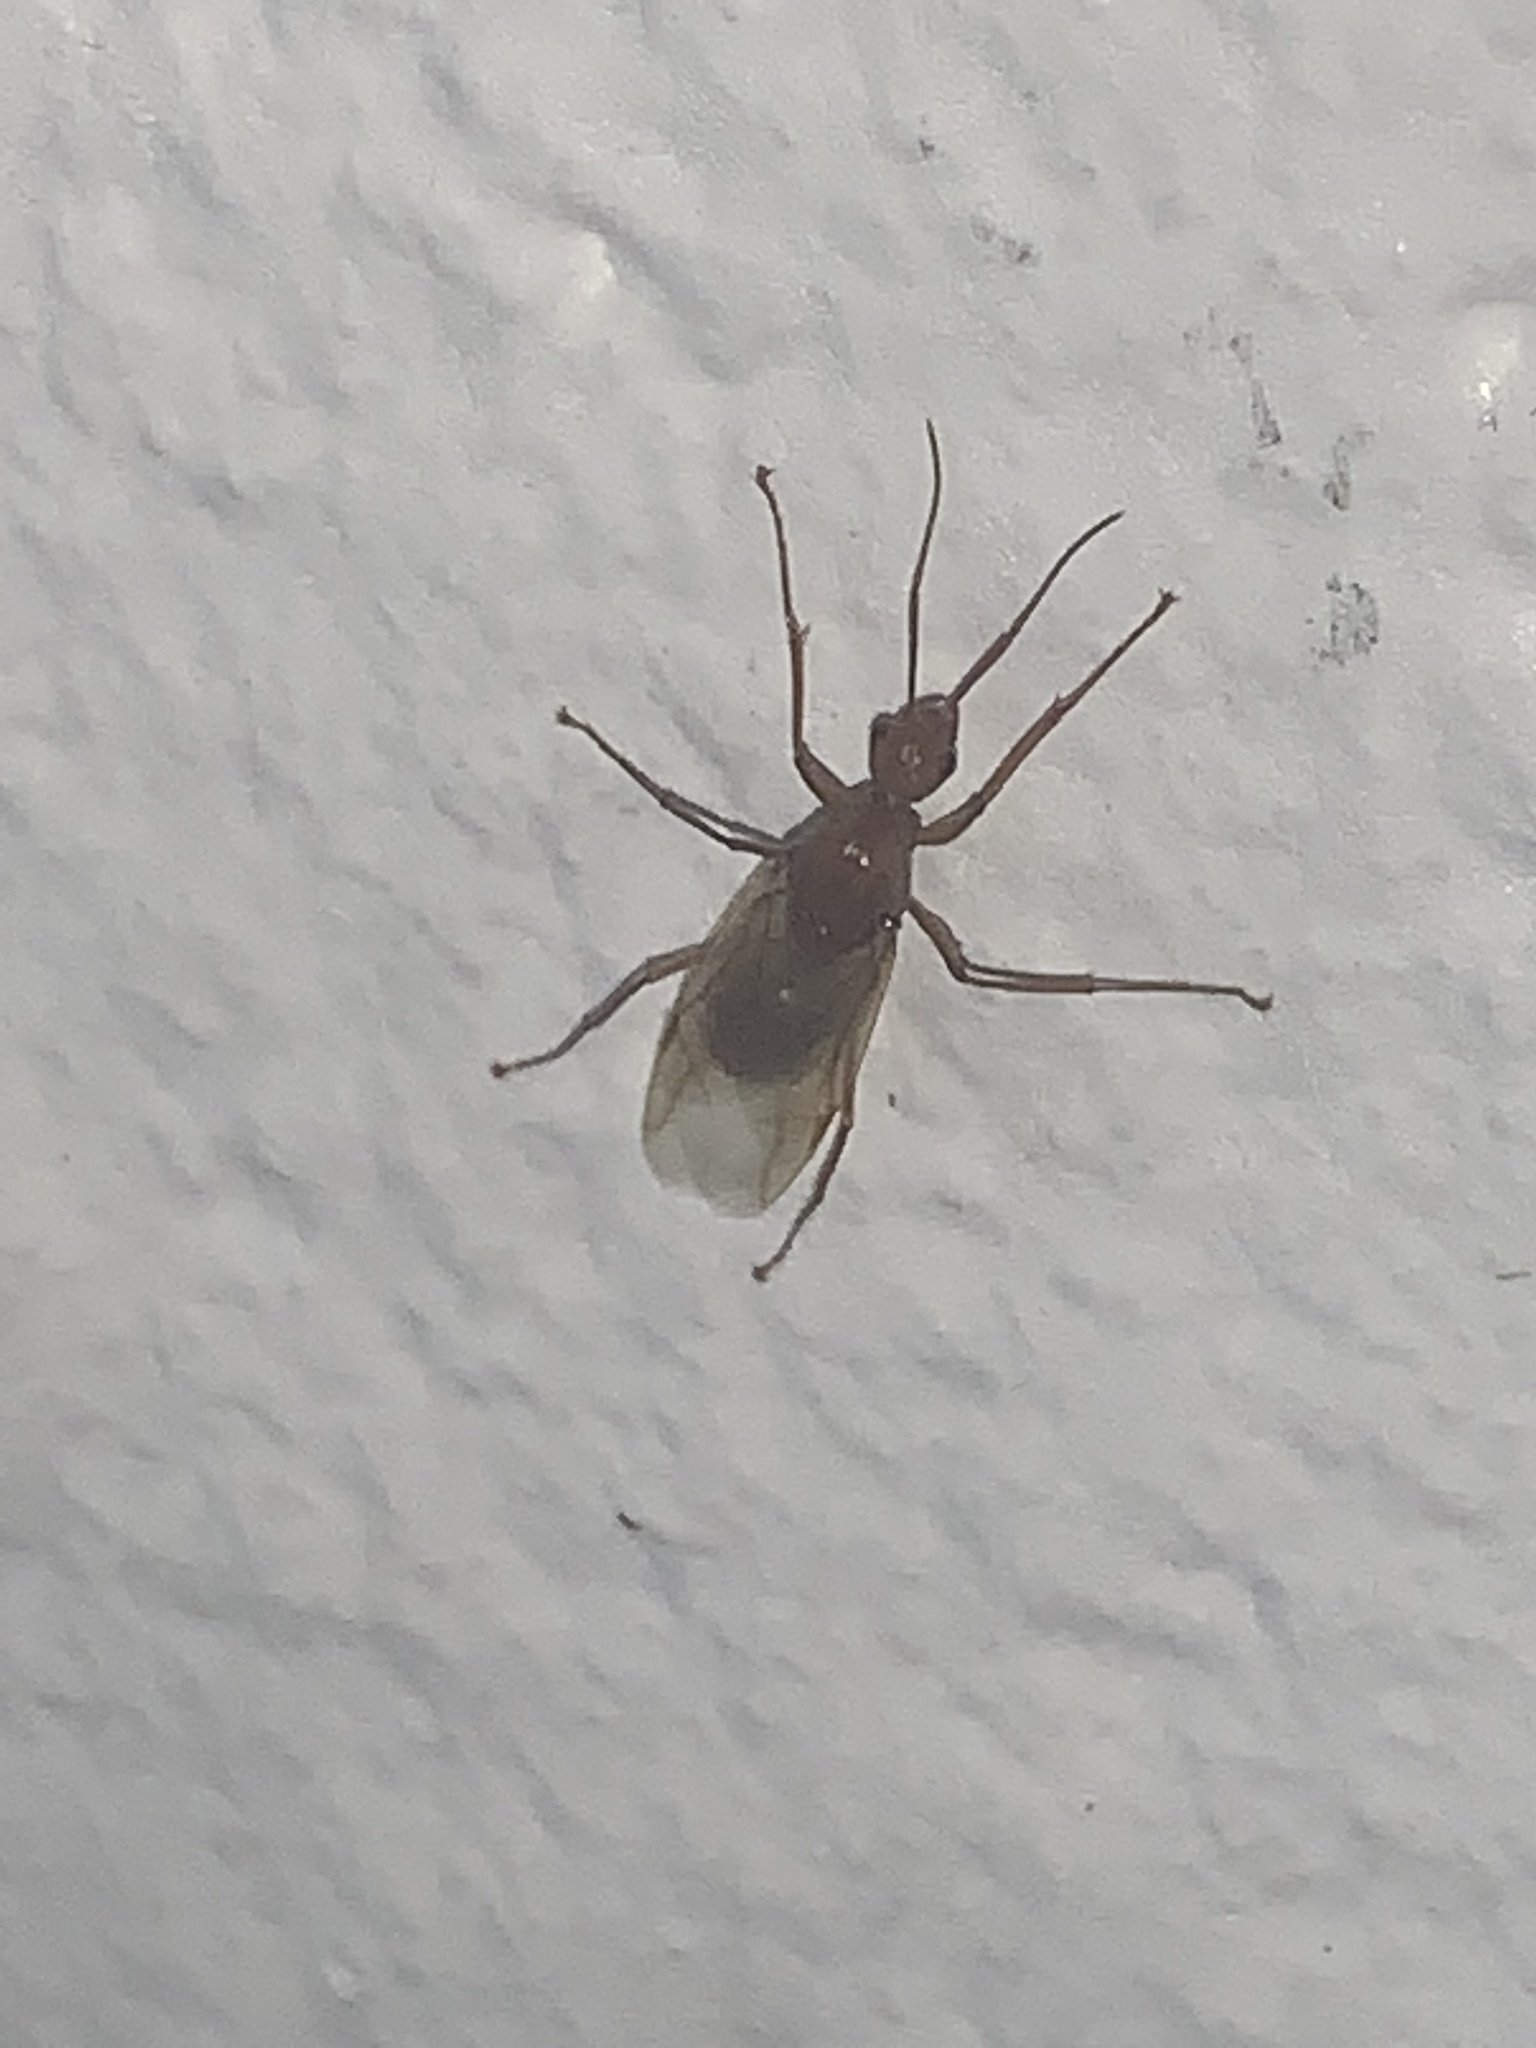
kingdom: Animalia
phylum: Arthropoda
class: Insecta
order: Hymenoptera
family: Formicidae
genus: Camponotus
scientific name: Camponotus castaneus
